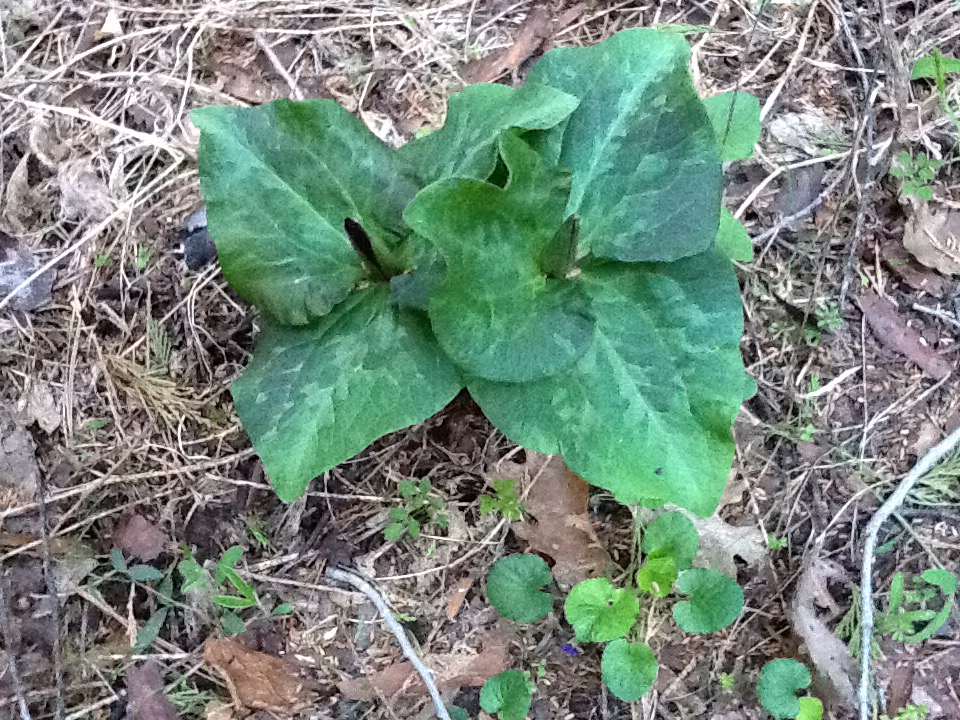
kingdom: Plantae
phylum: Tracheophyta
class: Liliopsida
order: Liliales
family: Melanthiaceae
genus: Trillium
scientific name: Trillium chloropetalum
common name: Giant trillium
